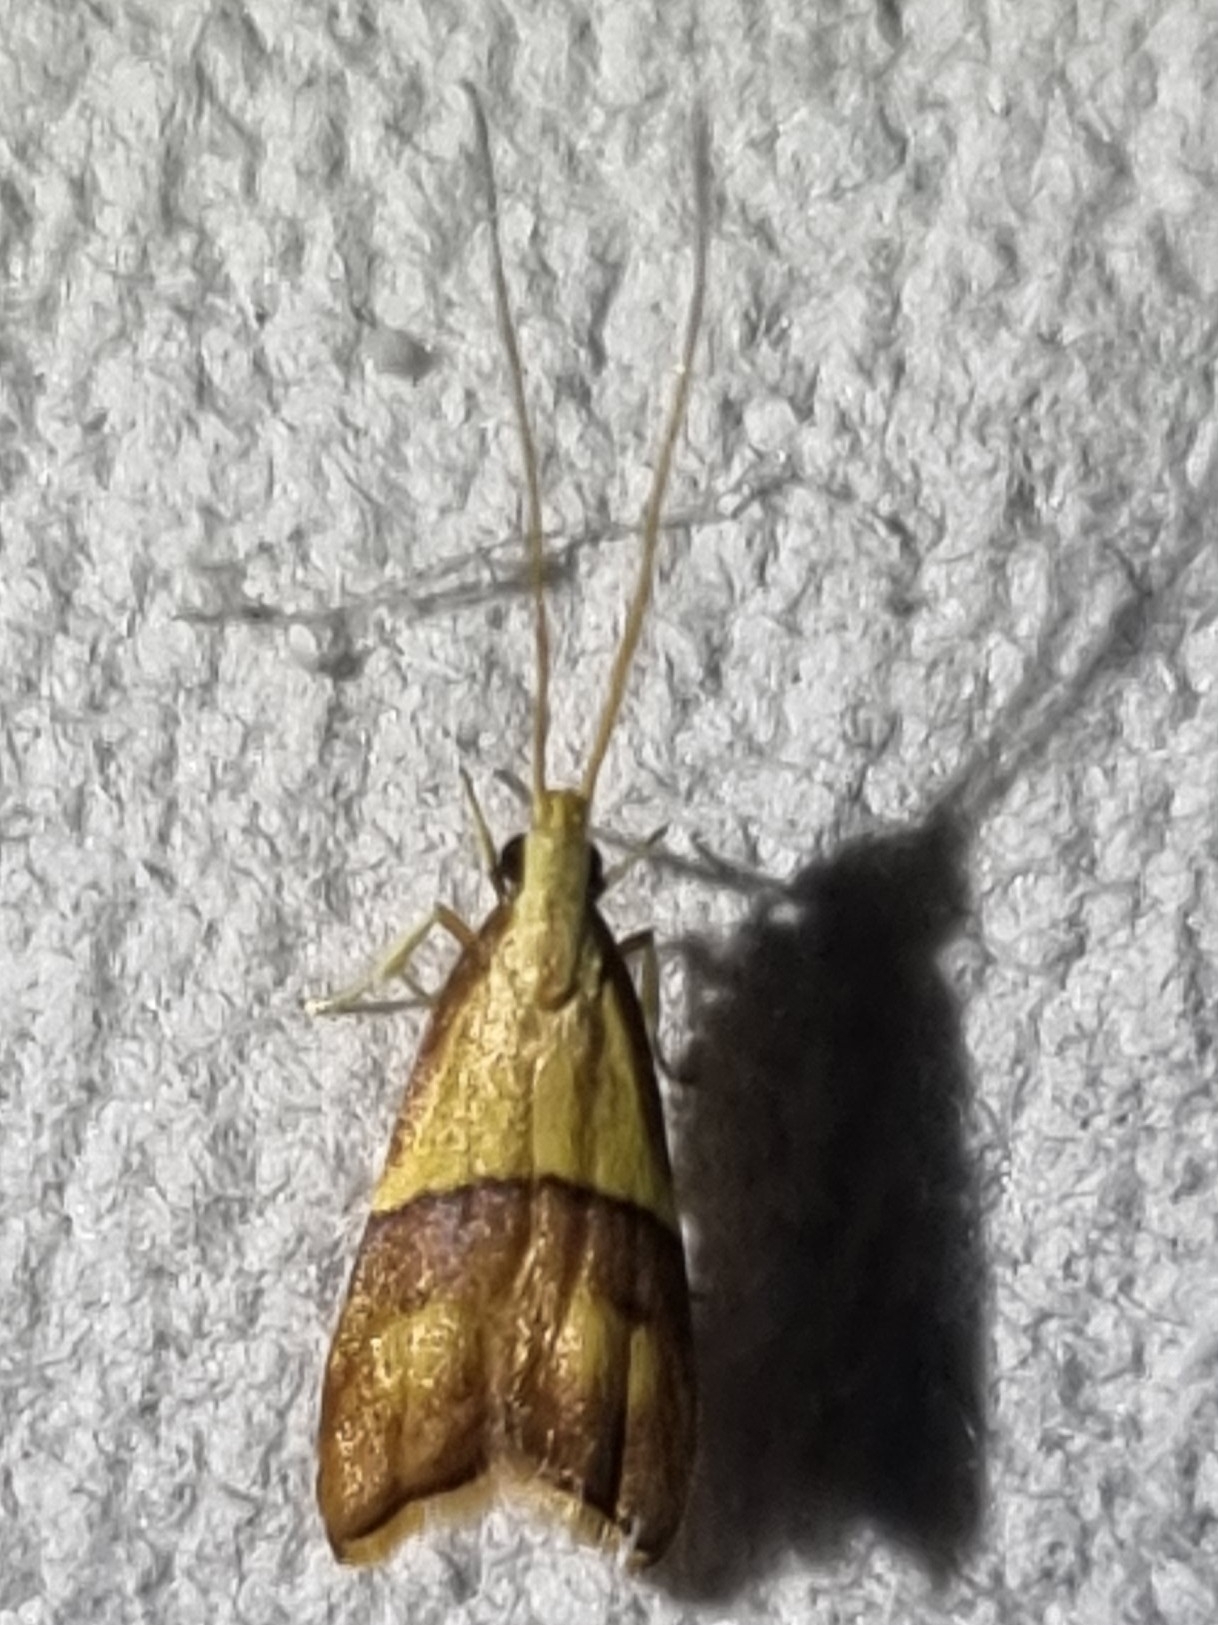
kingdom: Animalia
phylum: Arthropoda
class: Insecta
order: Lepidoptera
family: Lecithoceridae
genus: Crocanthes
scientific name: Crocanthes prasinopis
